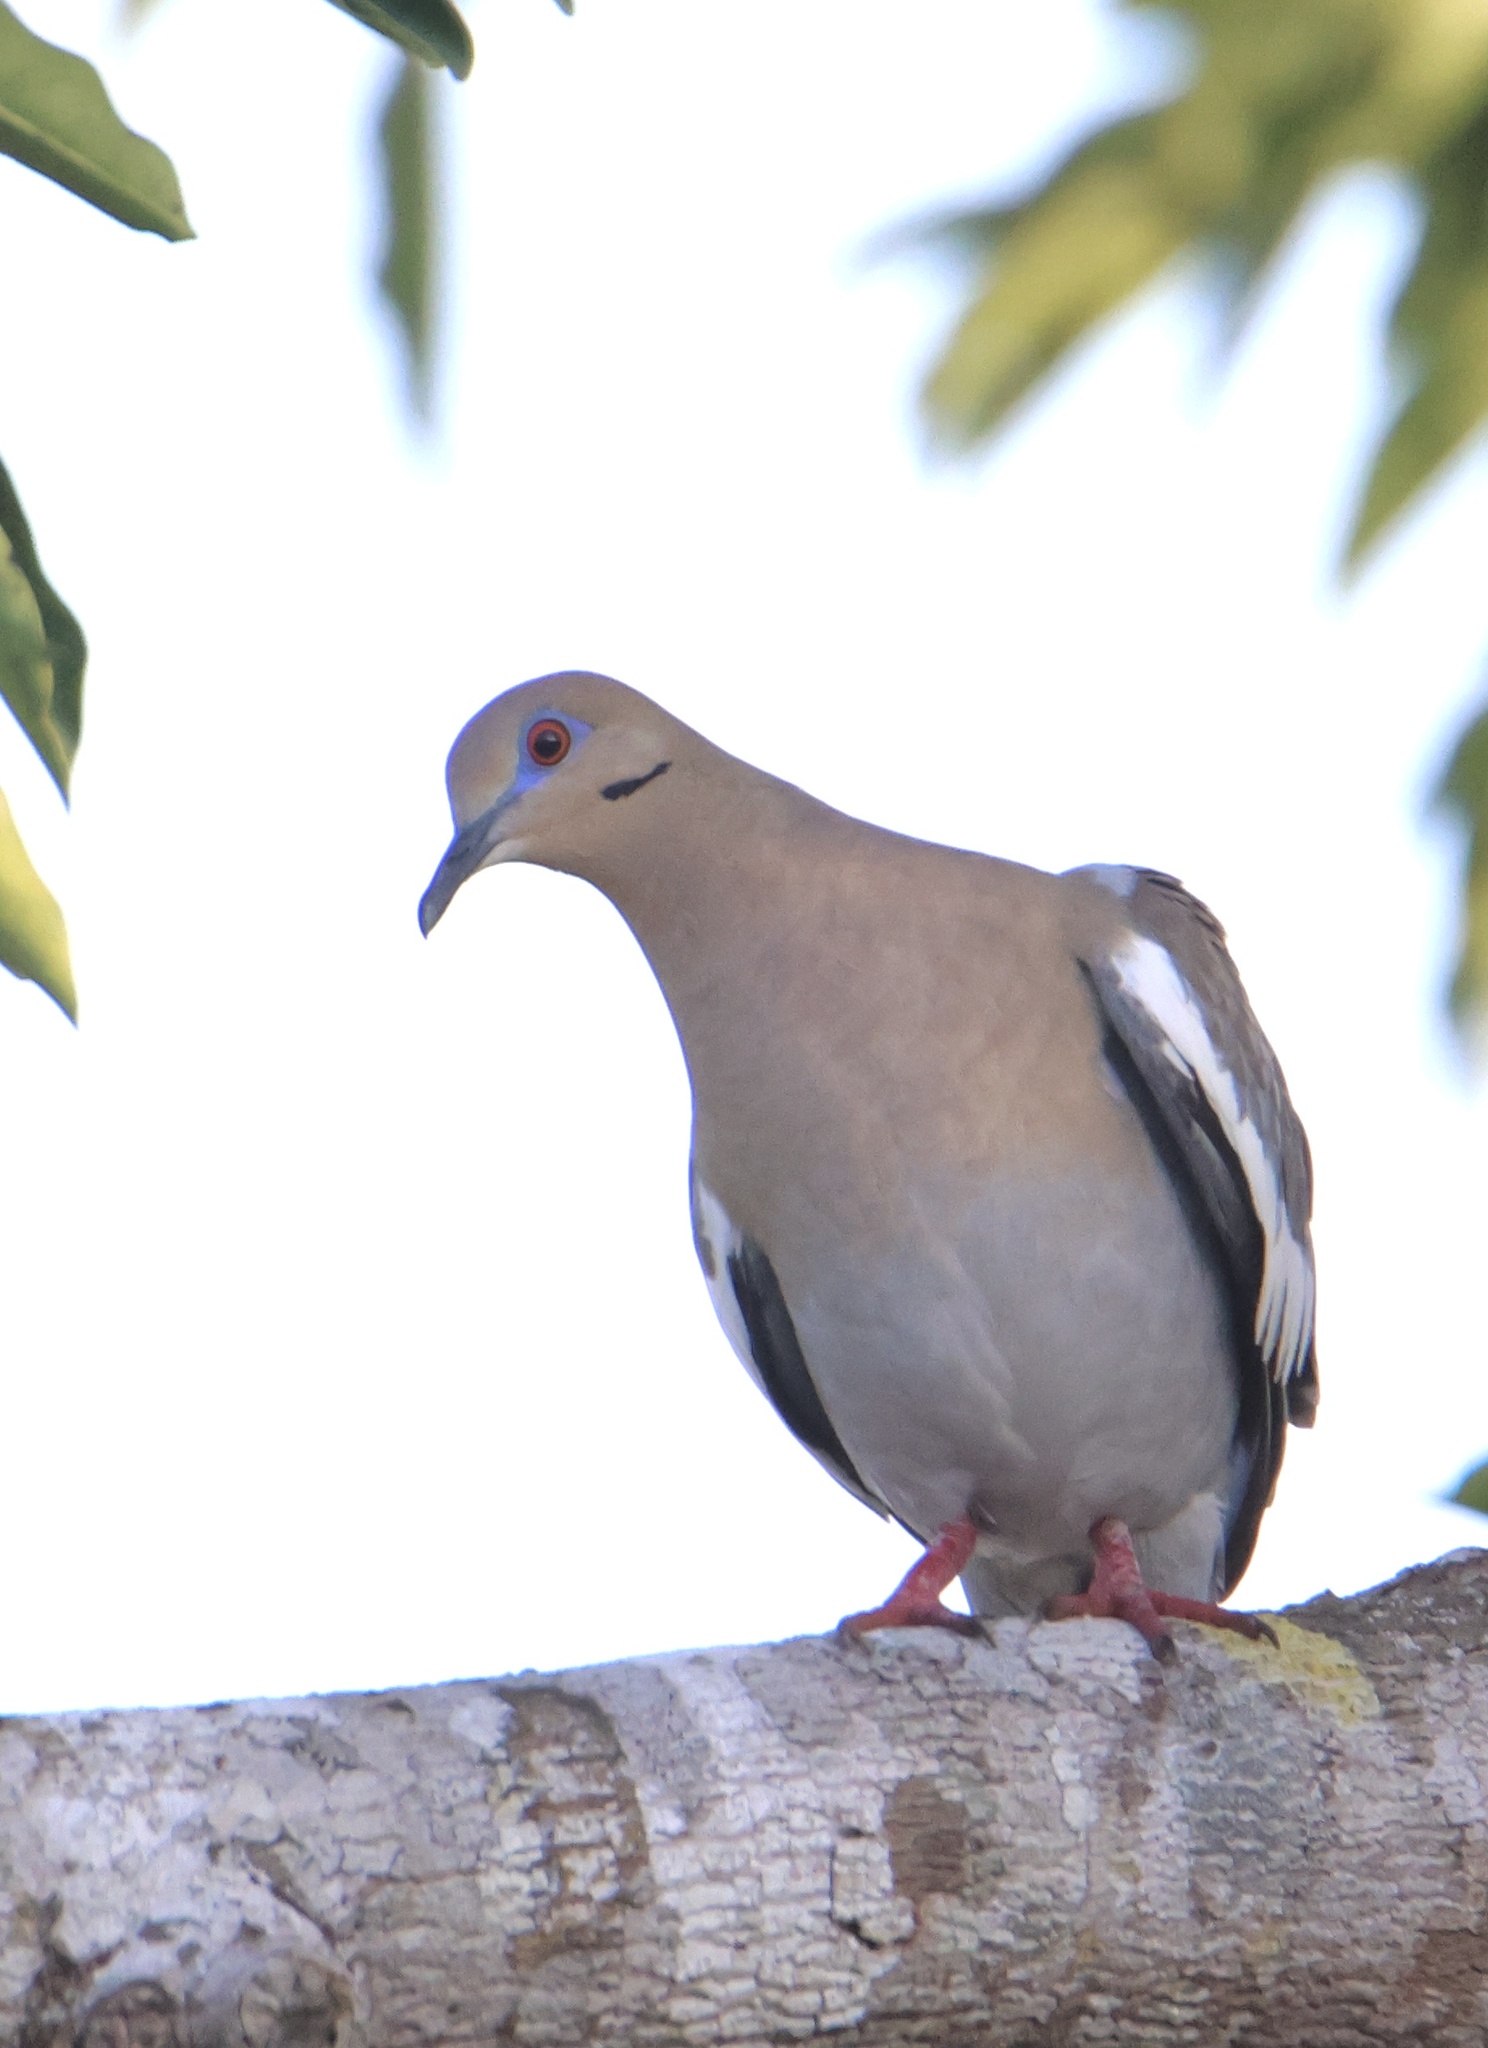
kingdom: Animalia
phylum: Chordata
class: Aves
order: Columbiformes
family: Columbidae
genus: Zenaida
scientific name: Zenaida asiatica
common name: White-winged dove
